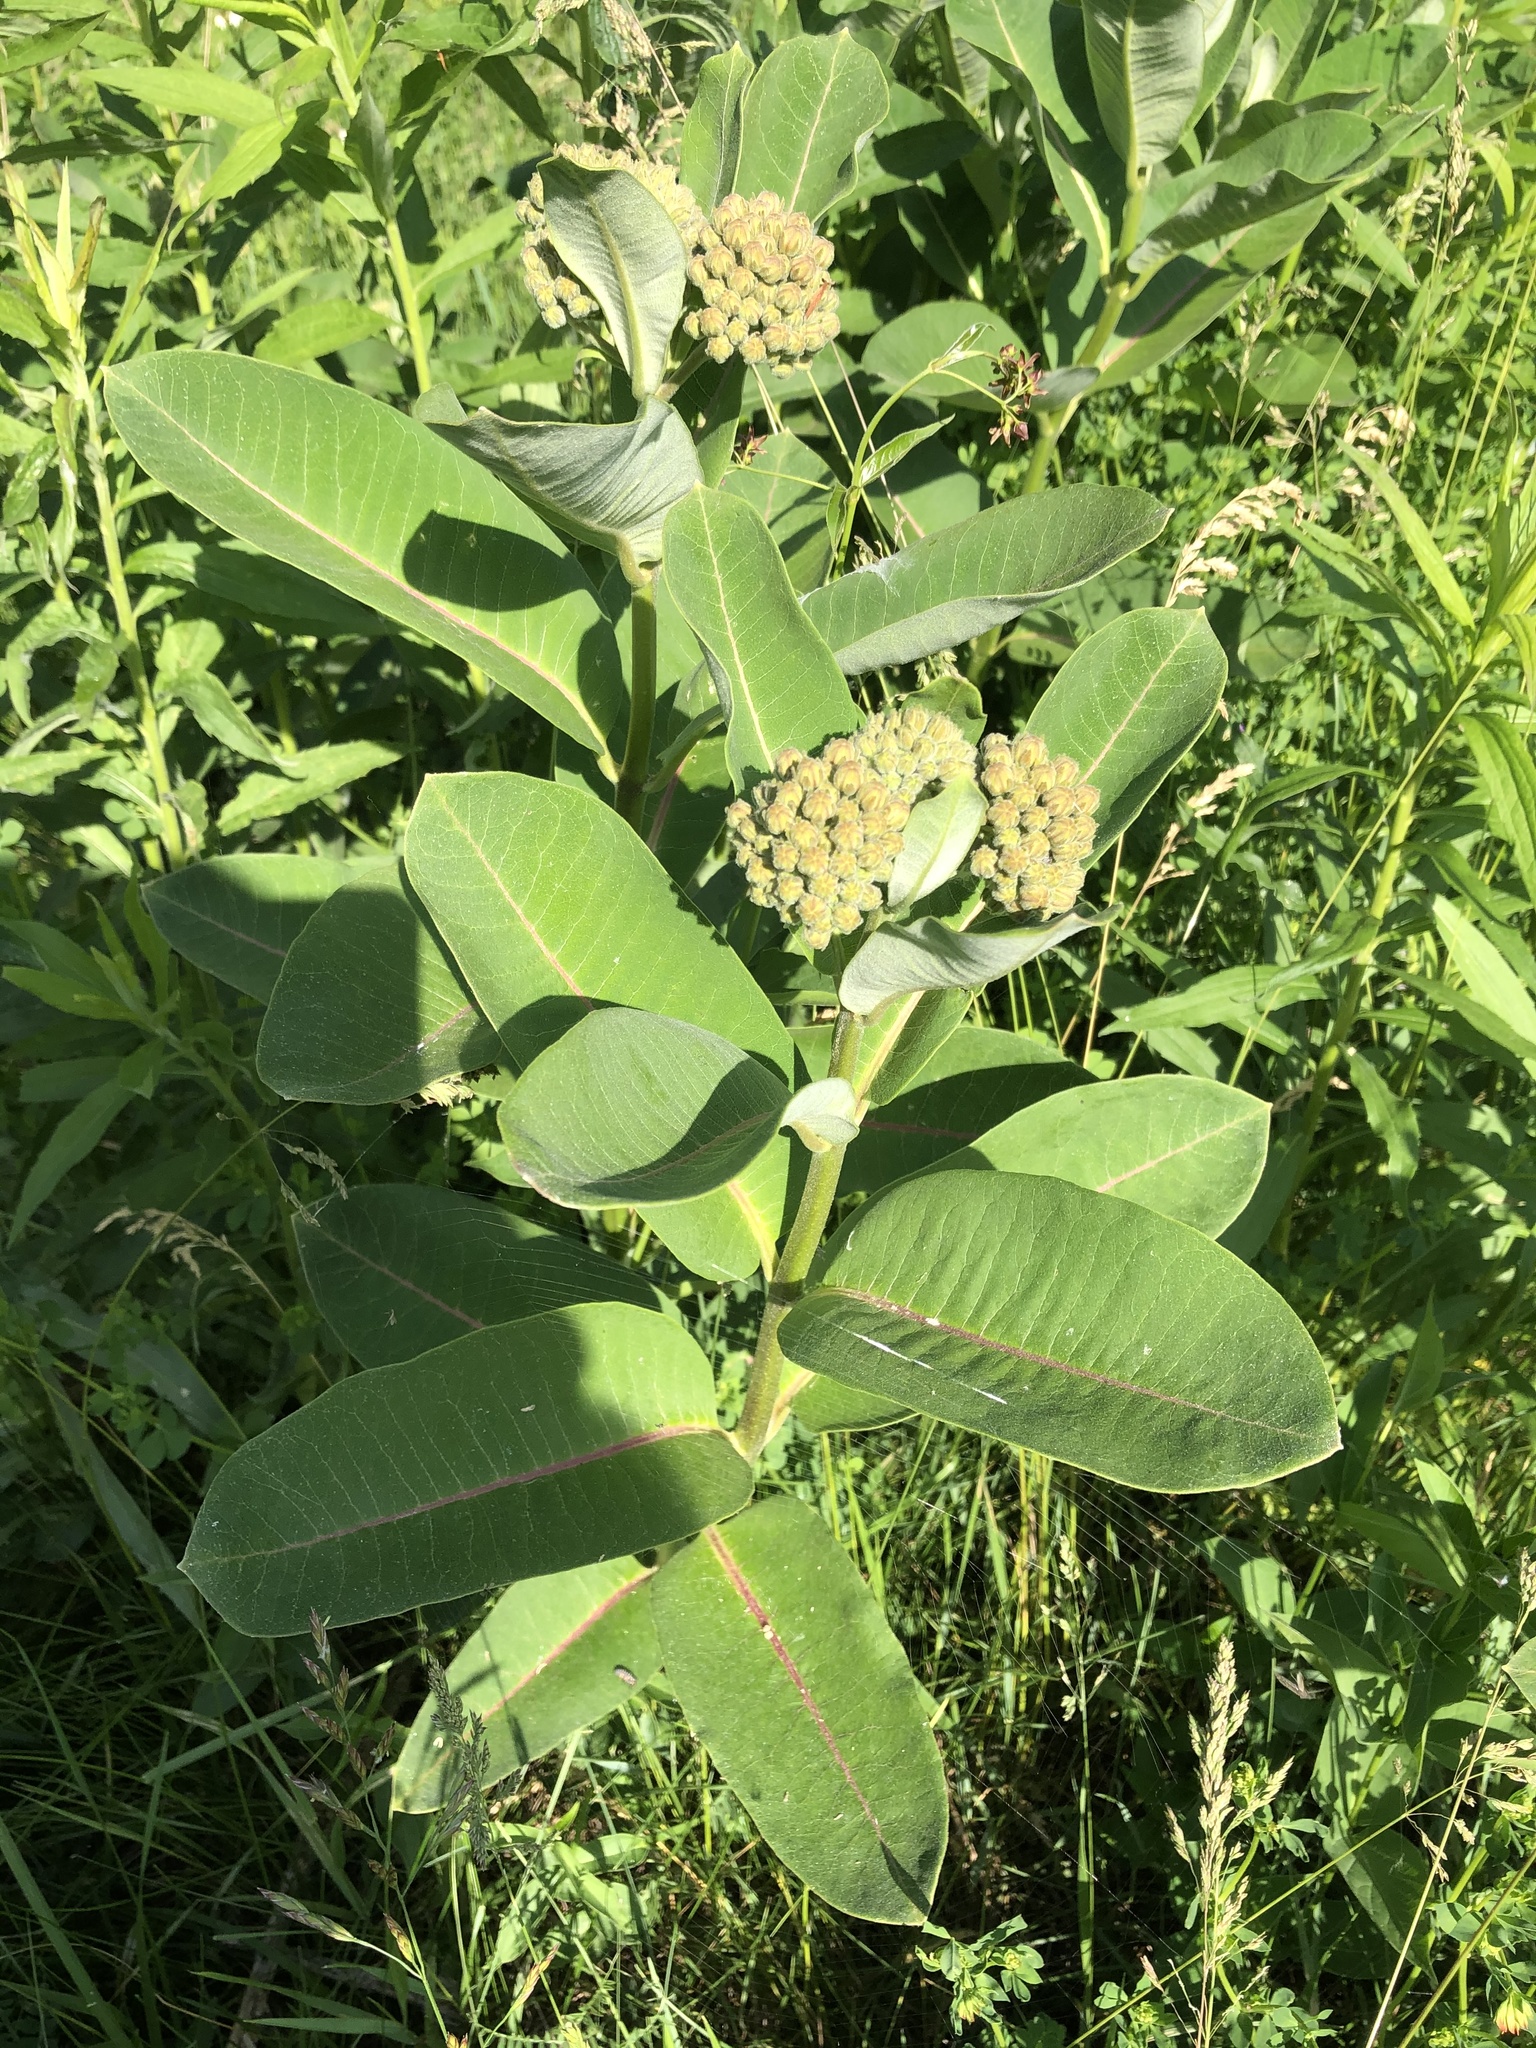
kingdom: Plantae
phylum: Tracheophyta
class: Magnoliopsida
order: Gentianales
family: Apocynaceae
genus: Asclepias
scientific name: Asclepias syriaca
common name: Common milkweed
